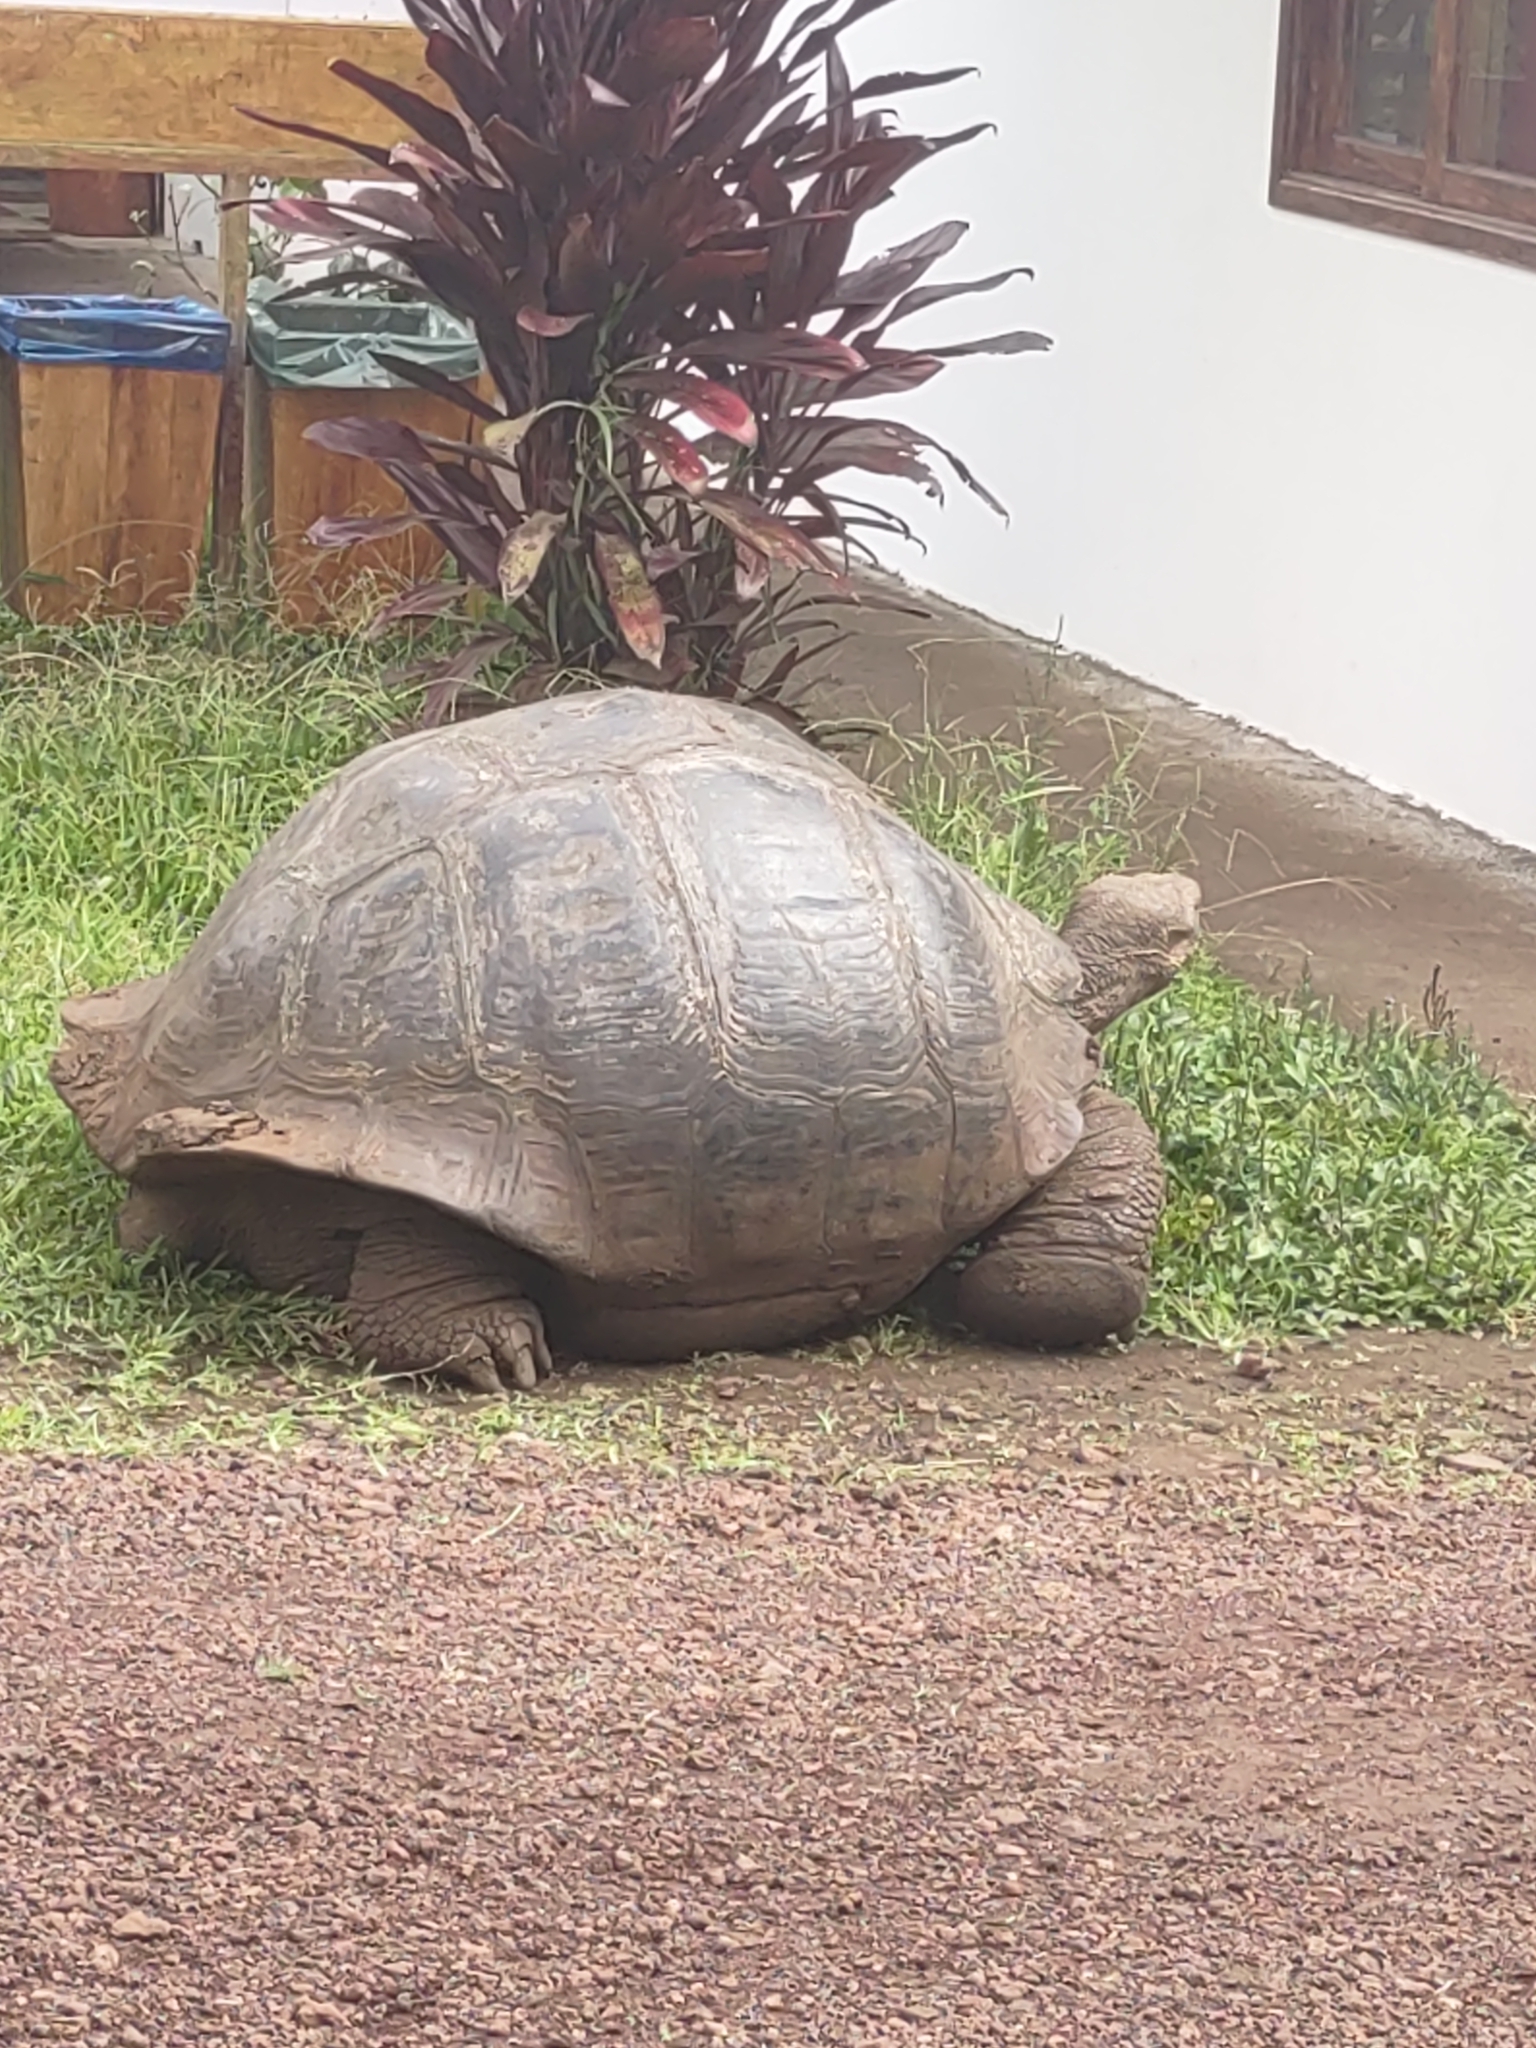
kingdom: Animalia
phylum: Chordata
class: Testudines
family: Testudinidae
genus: Chelonoidis
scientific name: Chelonoidis porteri
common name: Indefatigable island giant tortoise
